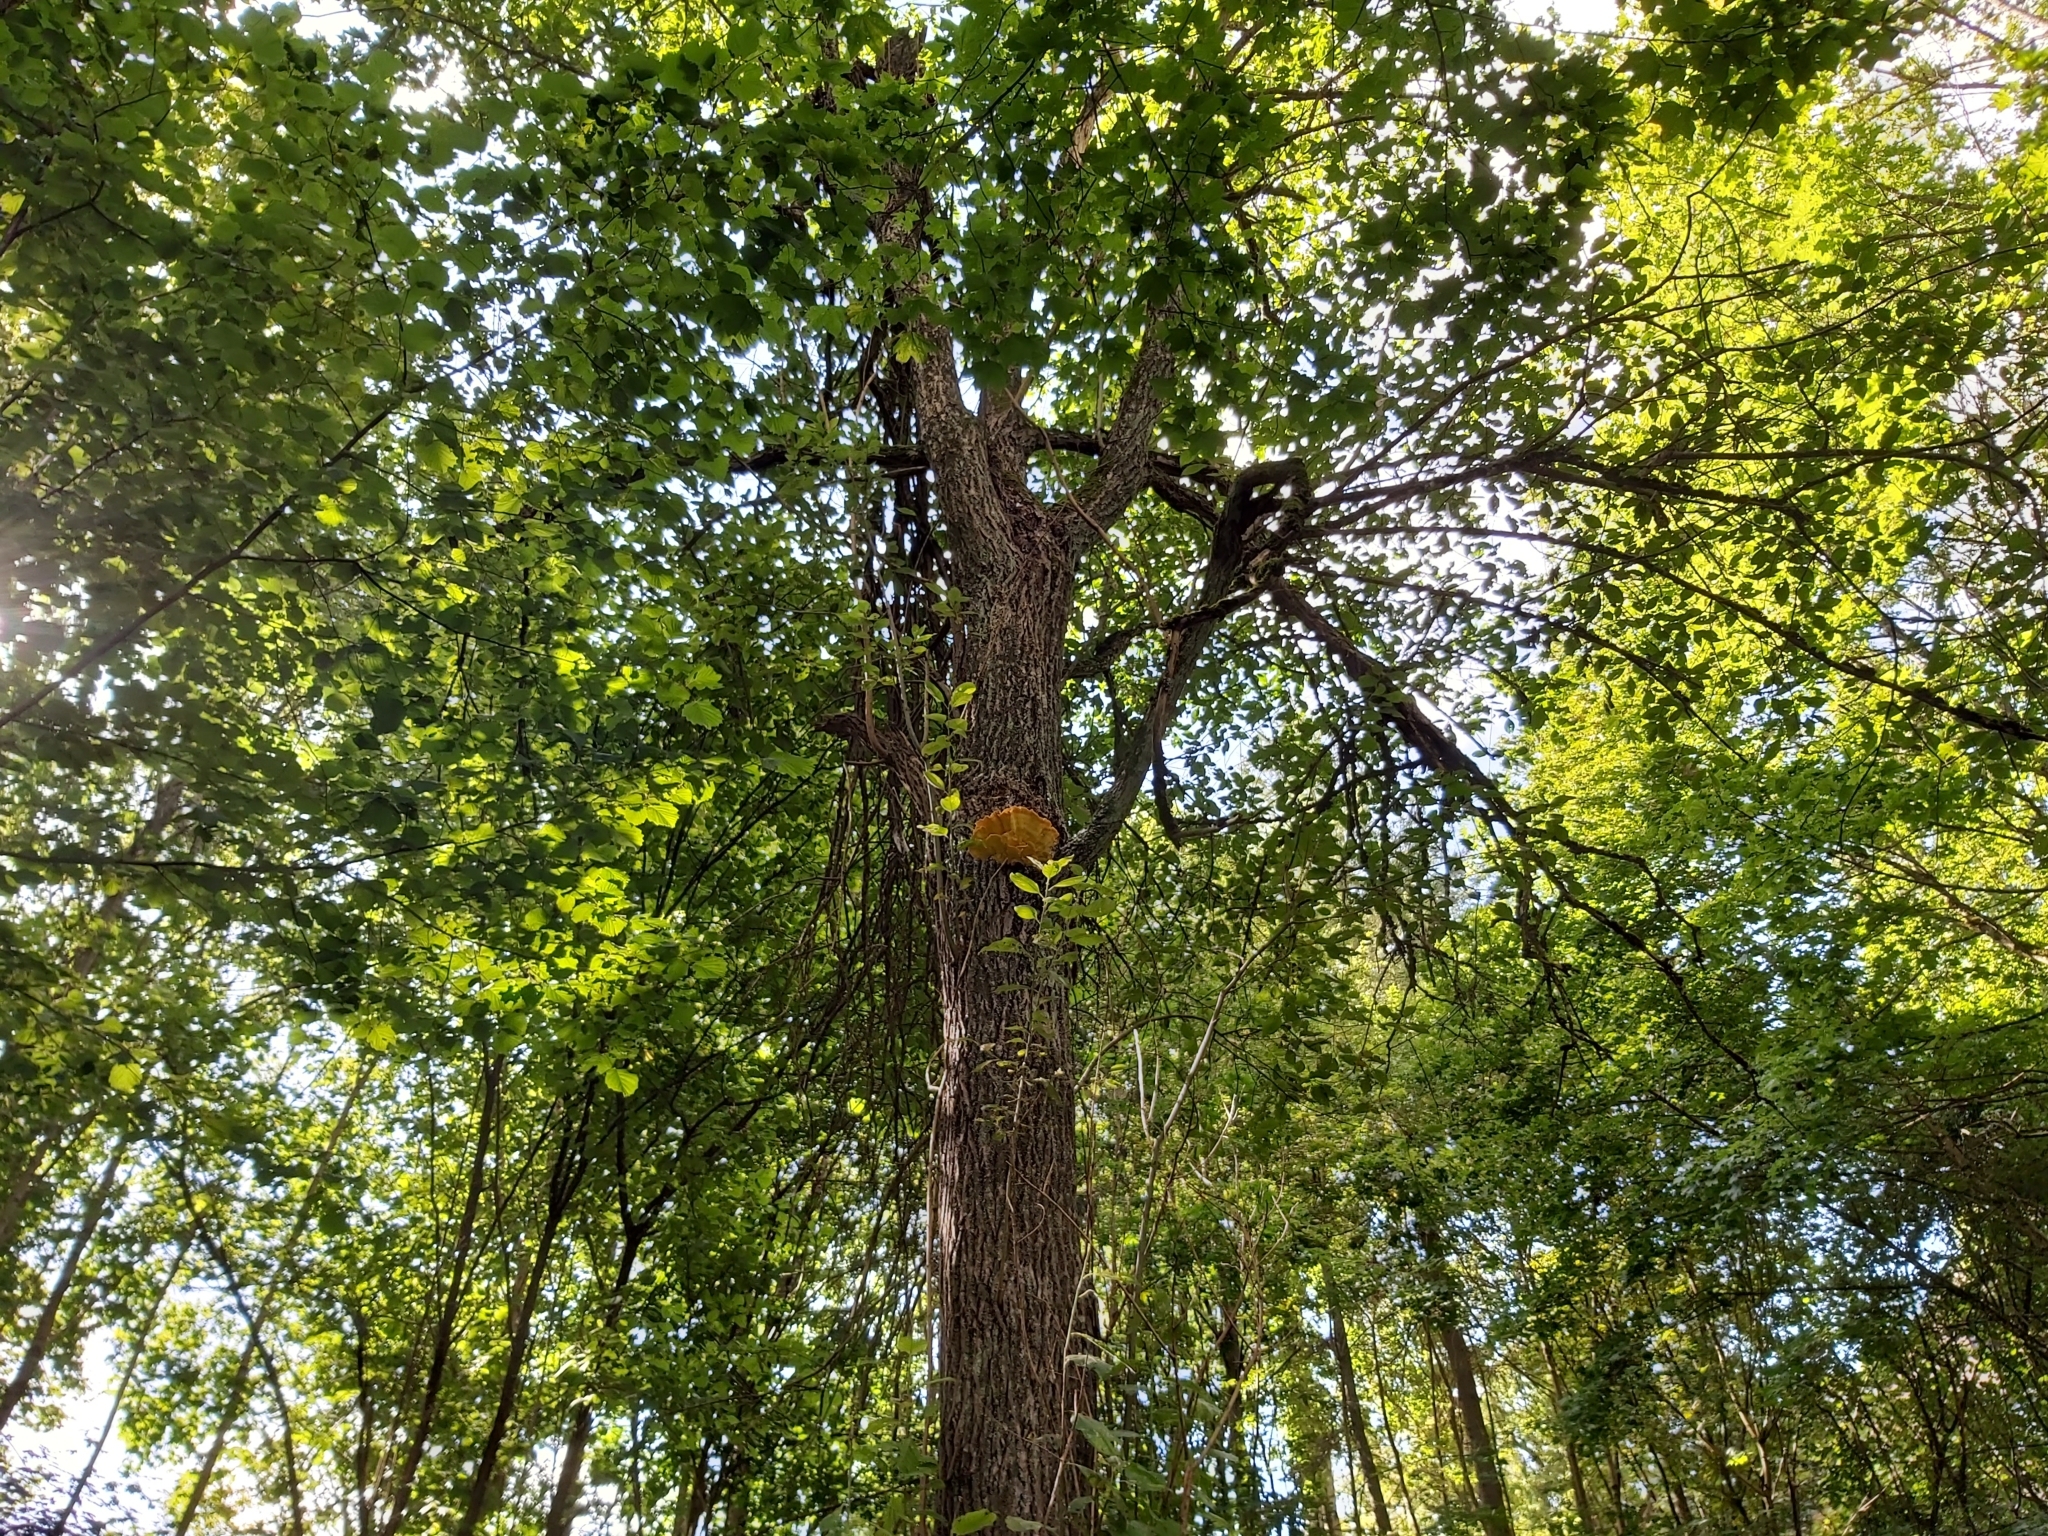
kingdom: Fungi
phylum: Basidiomycota
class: Agaricomycetes
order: Polyporales
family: Laetiporaceae
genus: Laetiporus
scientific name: Laetiporus sulphureus
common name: Chicken of the woods
